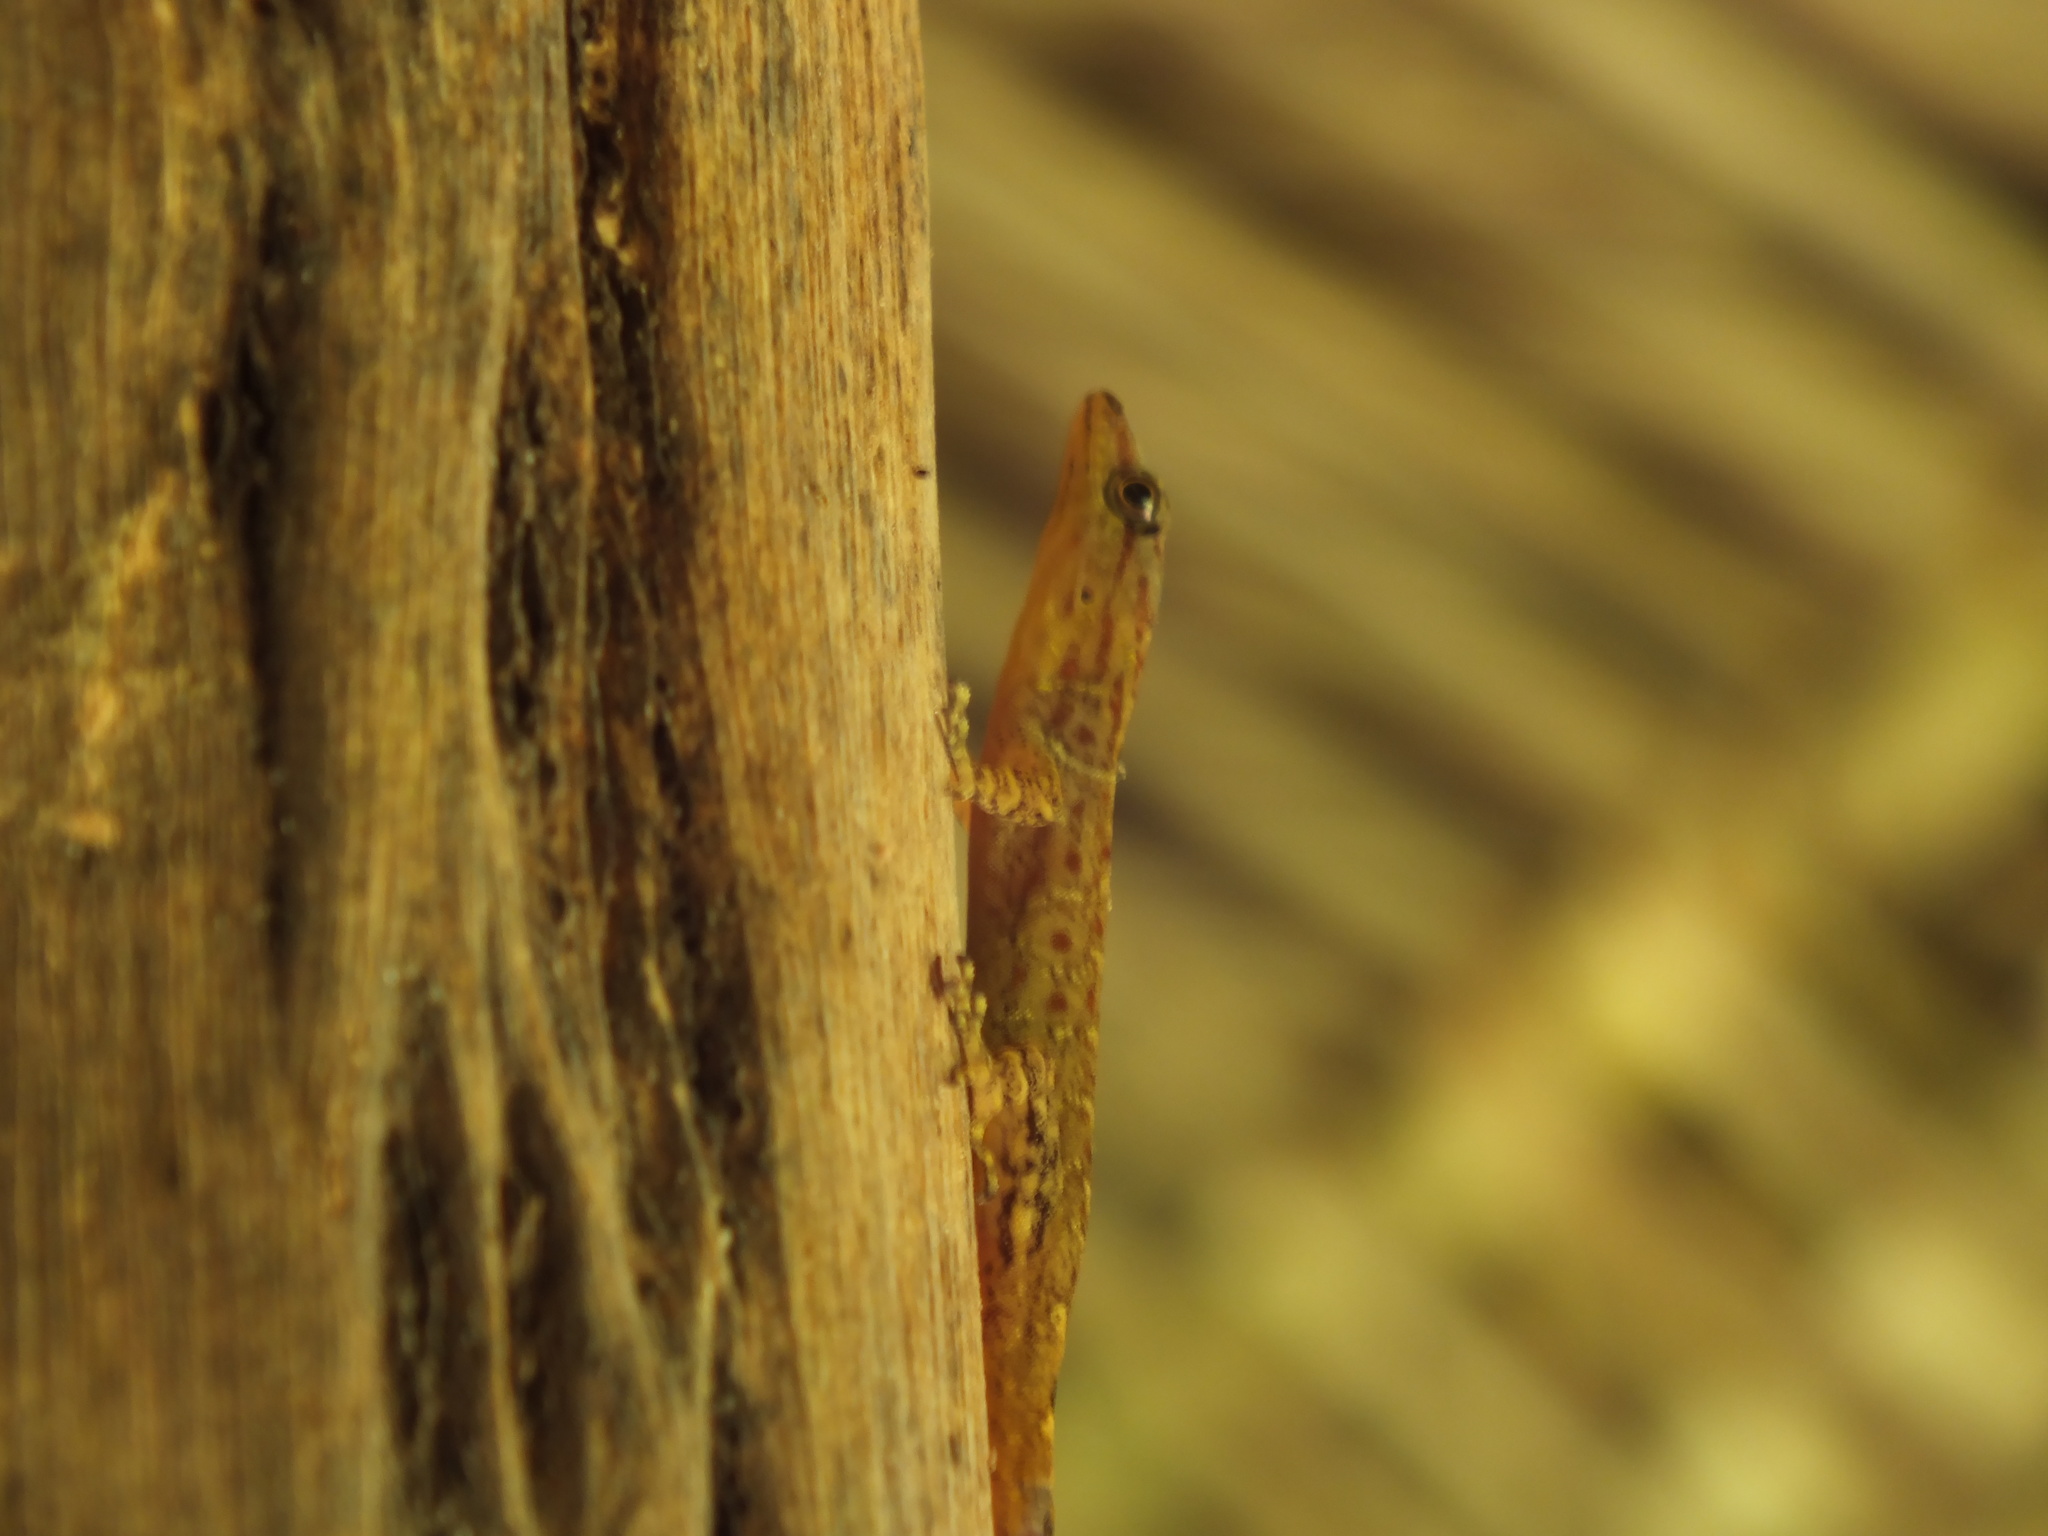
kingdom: Animalia
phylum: Chordata
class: Squamata
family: Sphaerodactylidae
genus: Gonatodes
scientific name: Gonatodes humeralis
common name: South american clawed gecko
